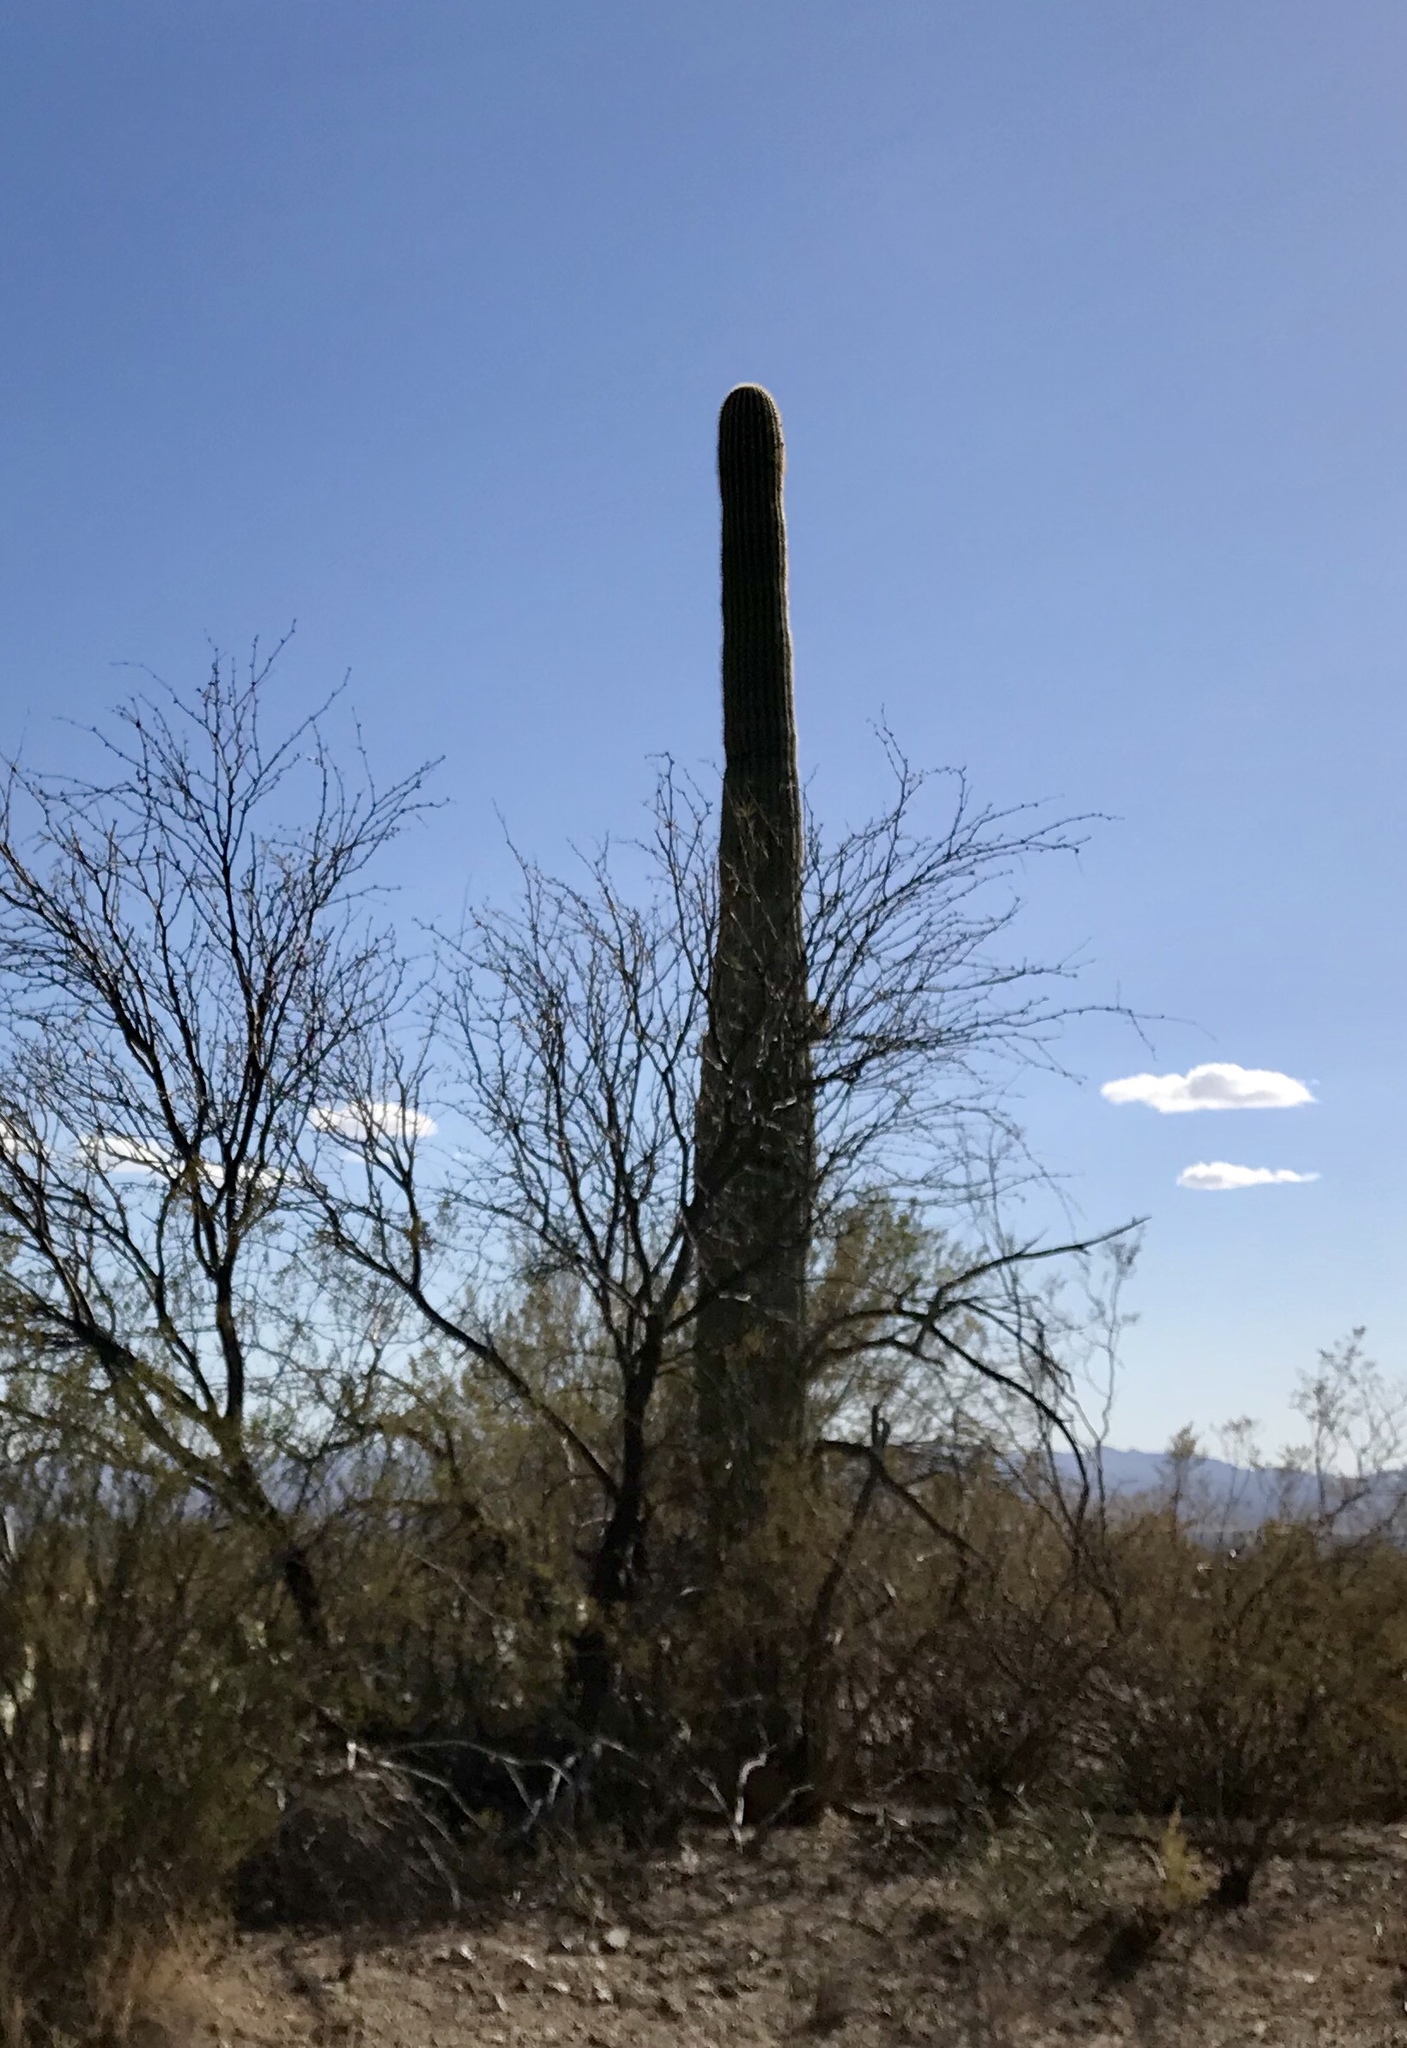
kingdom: Plantae
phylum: Tracheophyta
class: Magnoliopsida
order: Caryophyllales
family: Cactaceae
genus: Carnegiea
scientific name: Carnegiea gigantea
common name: Saguaro
